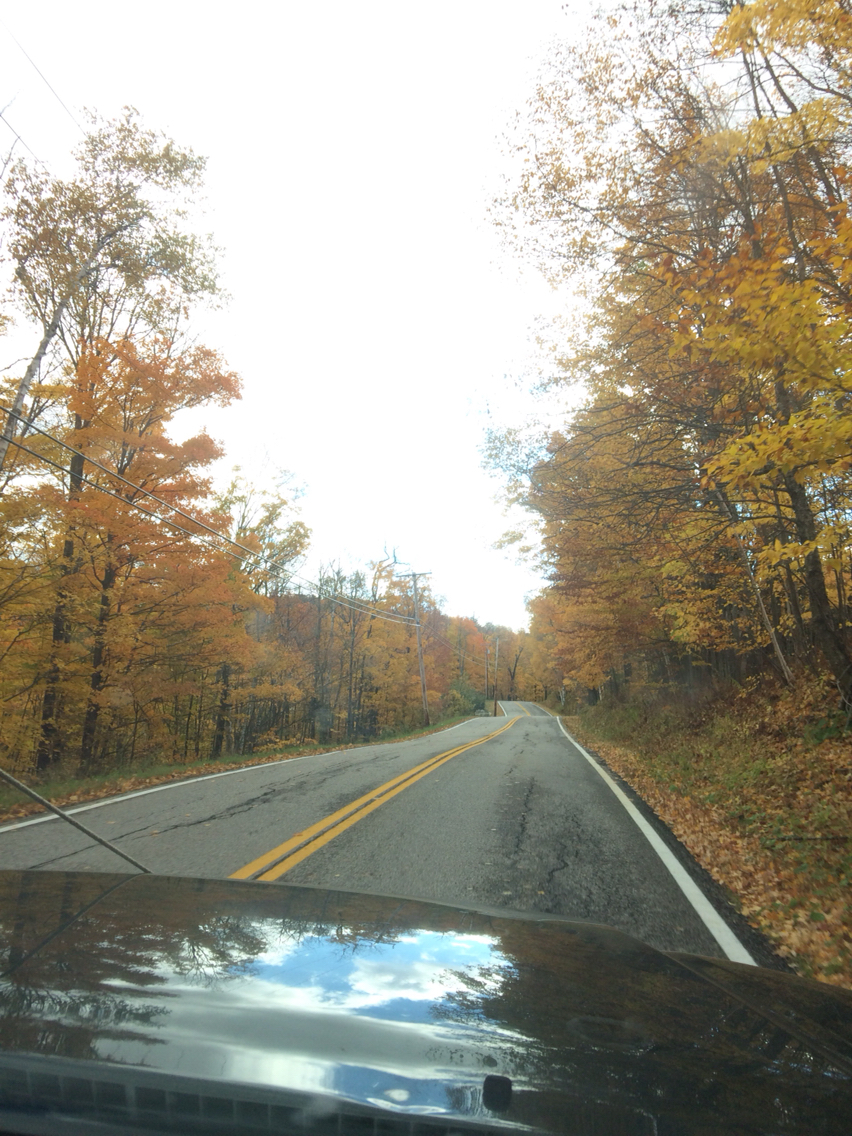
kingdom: Plantae
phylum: Tracheophyta
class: Magnoliopsida
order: Sapindales
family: Sapindaceae
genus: Acer
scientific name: Acer saccharum
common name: Sugar maple
